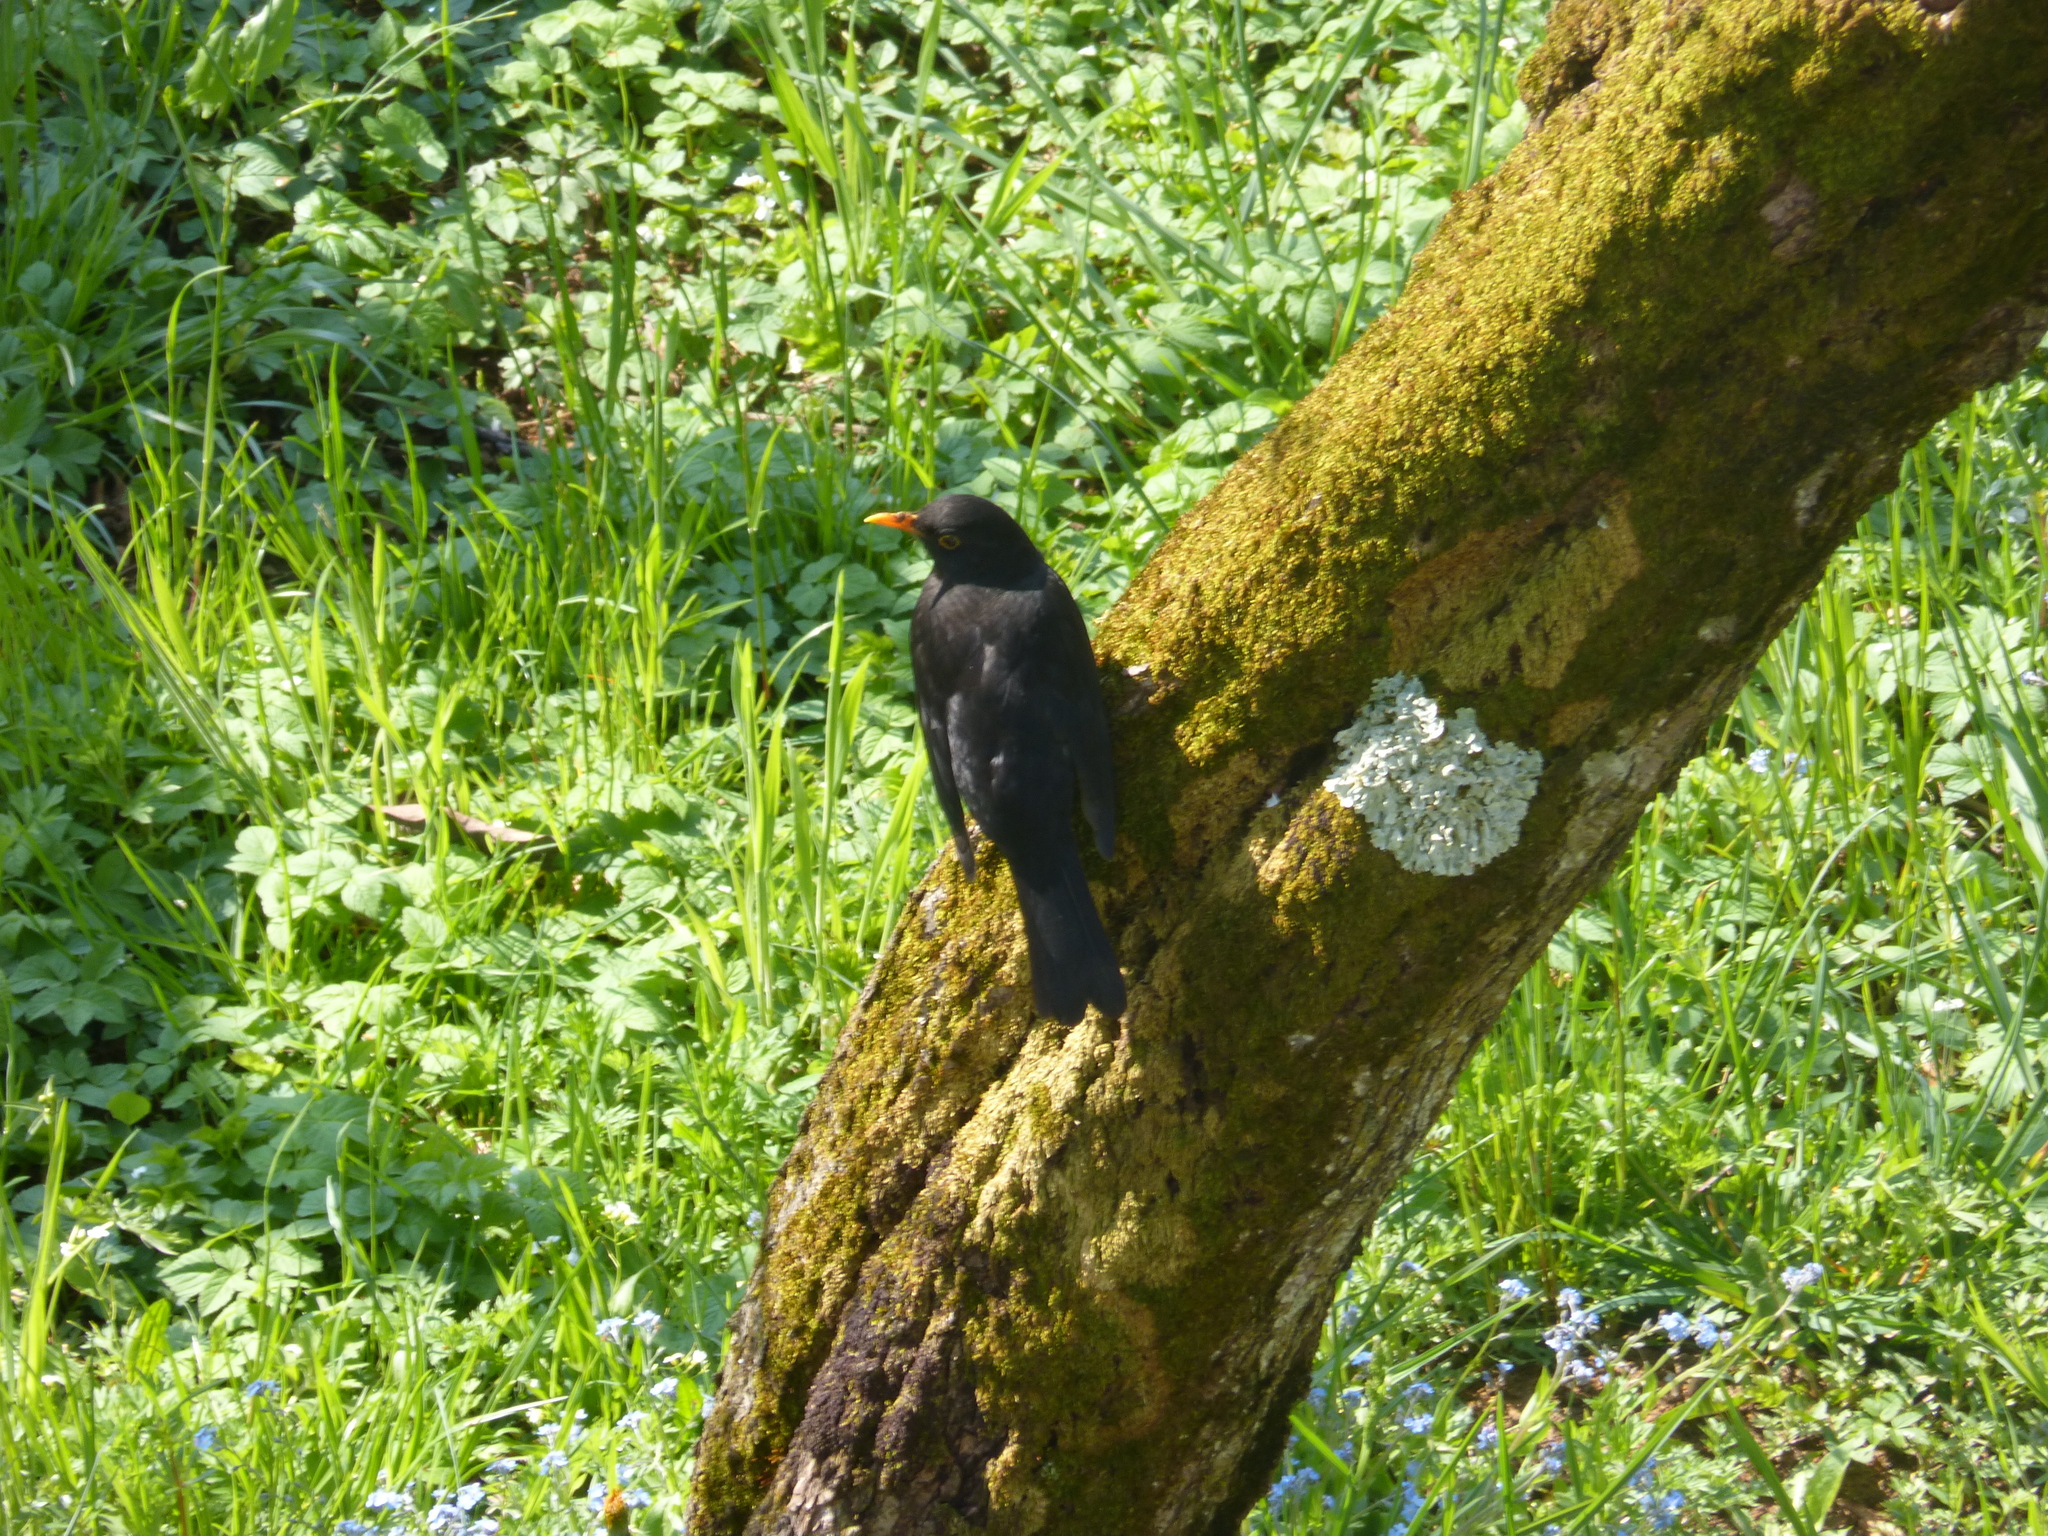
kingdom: Animalia
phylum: Chordata
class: Aves
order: Passeriformes
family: Turdidae
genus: Turdus
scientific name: Turdus merula
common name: Common blackbird
